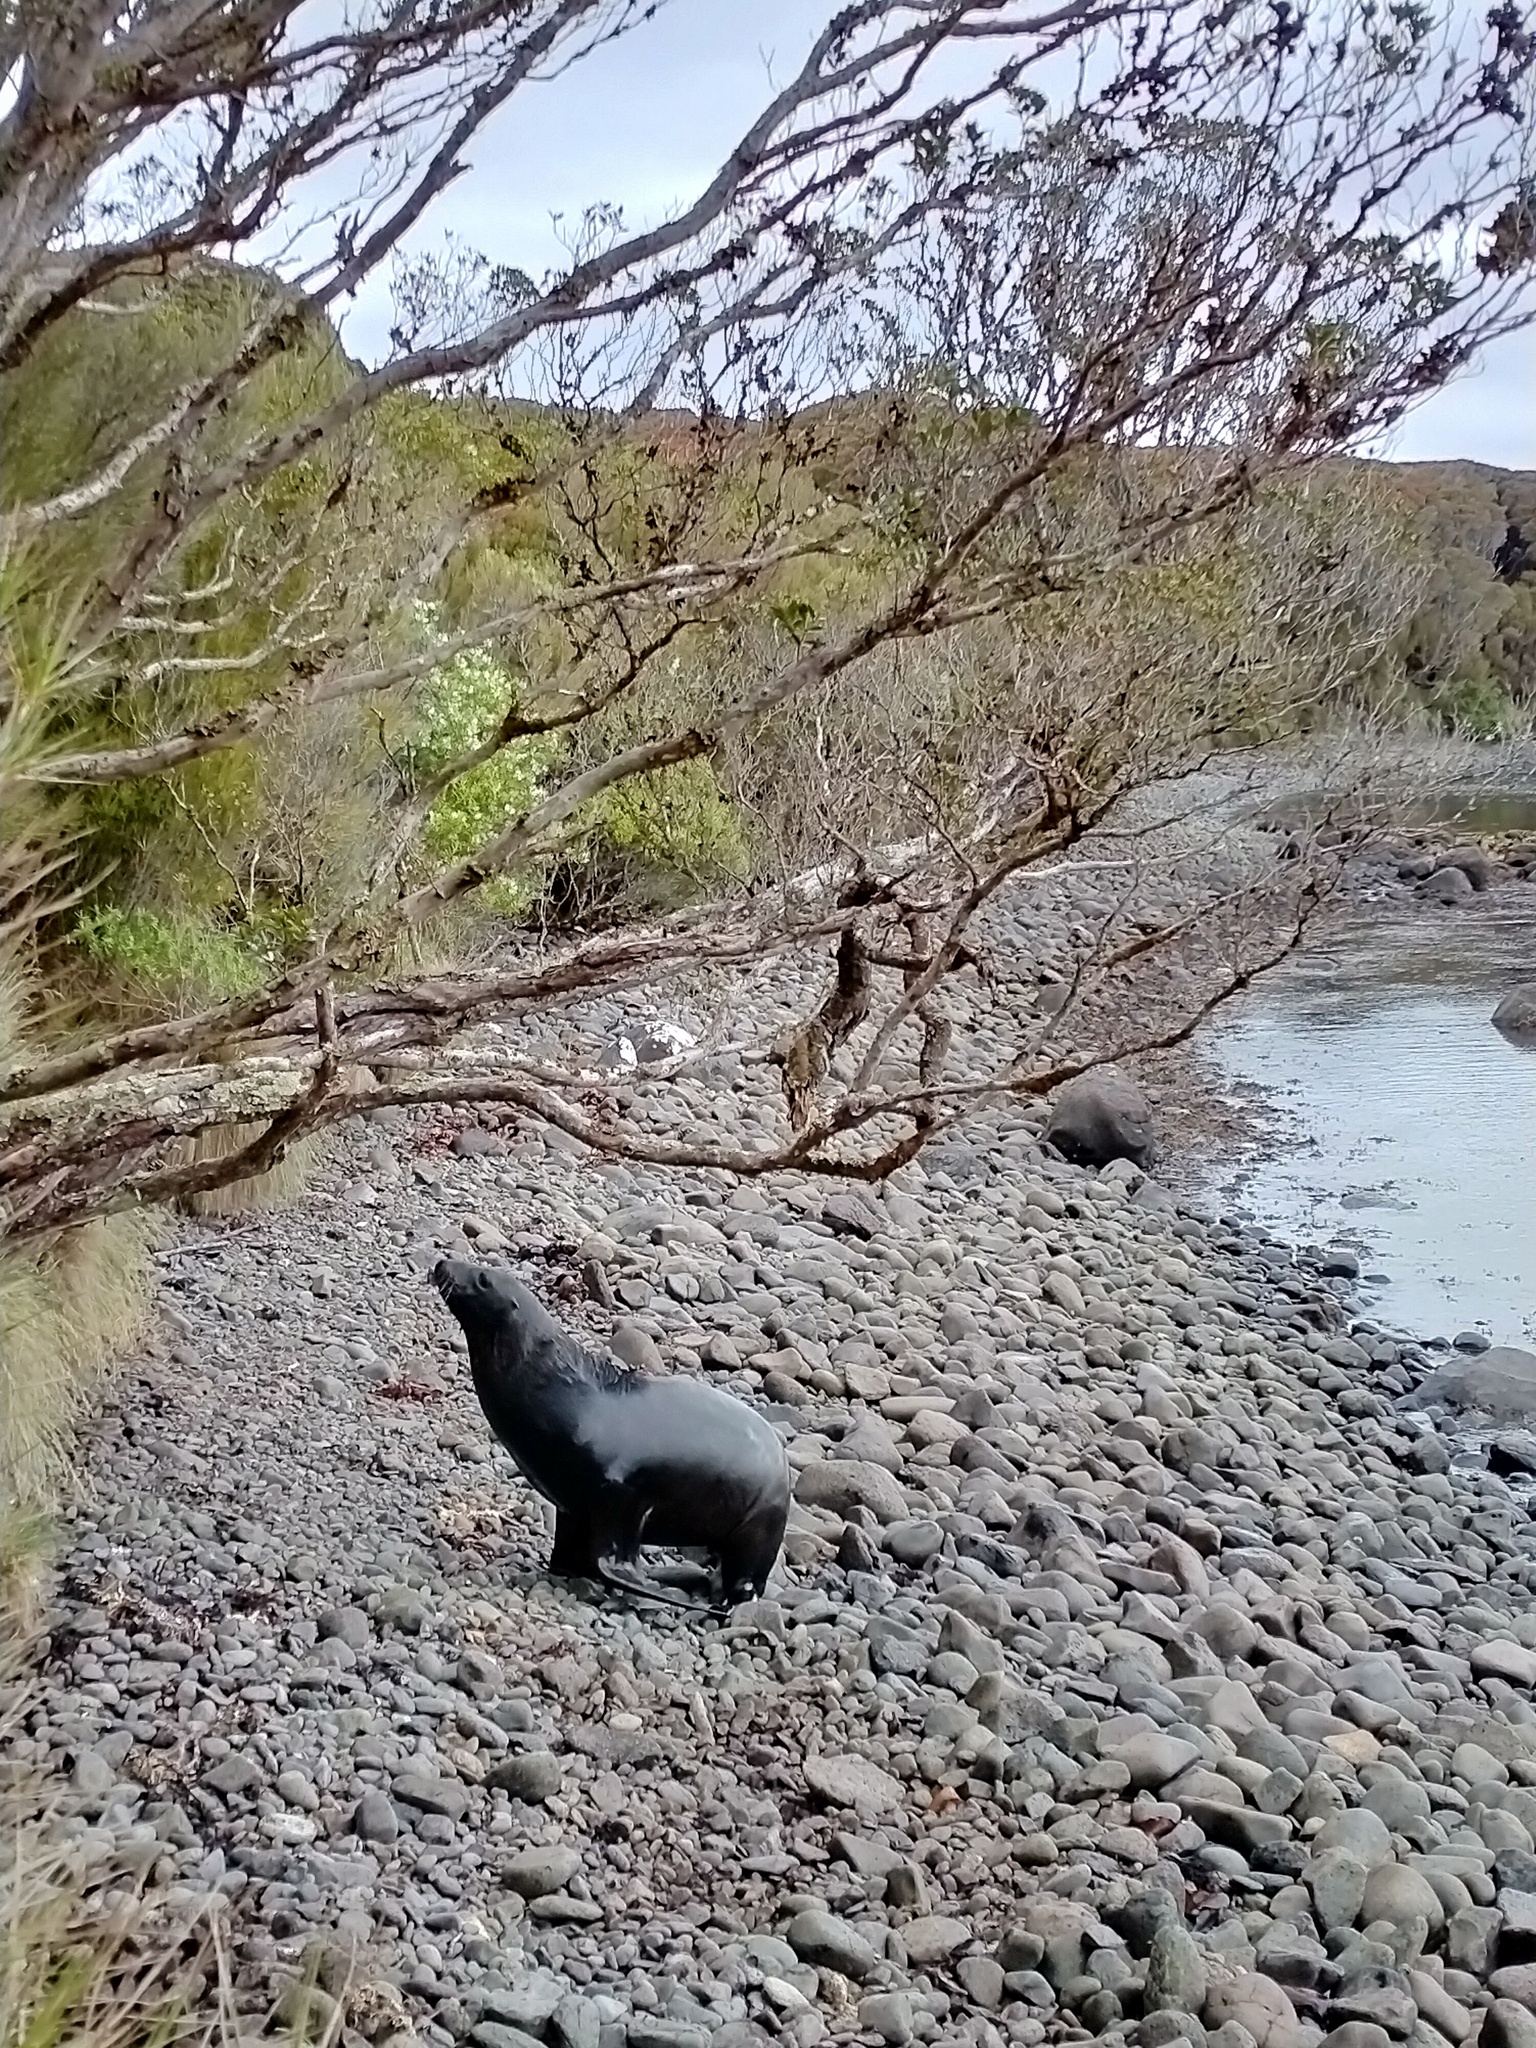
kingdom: Animalia
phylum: Chordata
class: Mammalia
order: Carnivora
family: Otariidae
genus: Phocarctos
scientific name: Phocarctos hookeri
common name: New zealand sea lion
